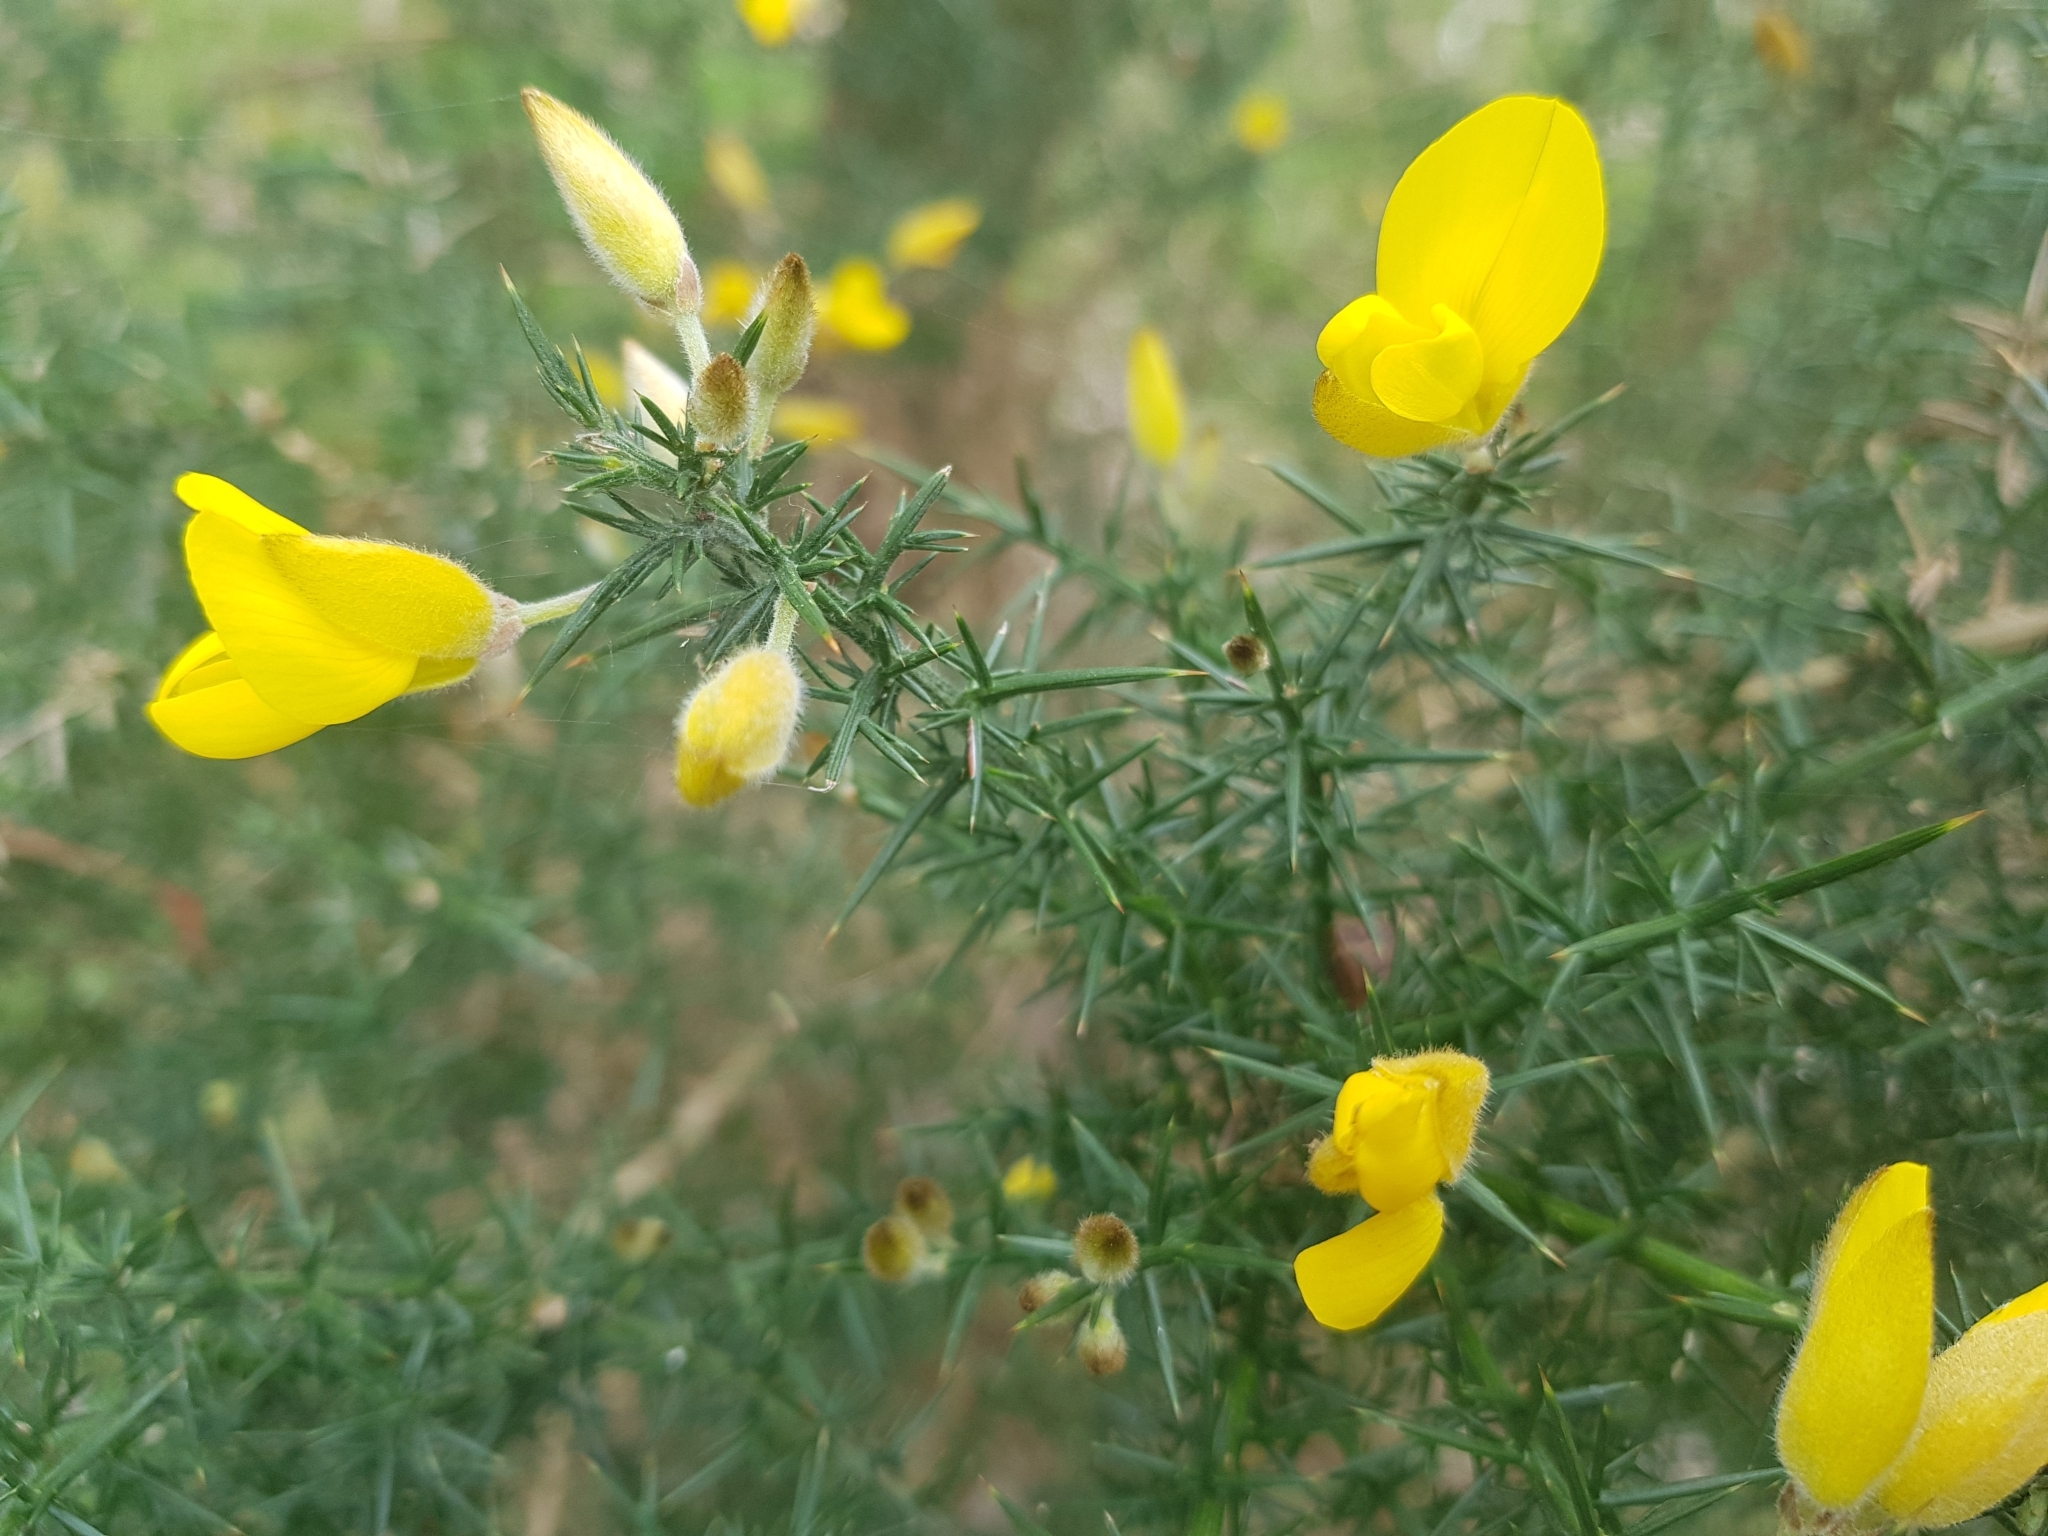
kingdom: Plantae
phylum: Tracheophyta
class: Magnoliopsida
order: Fabales
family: Fabaceae
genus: Ulex
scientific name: Ulex europaeus
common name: Common gorse
